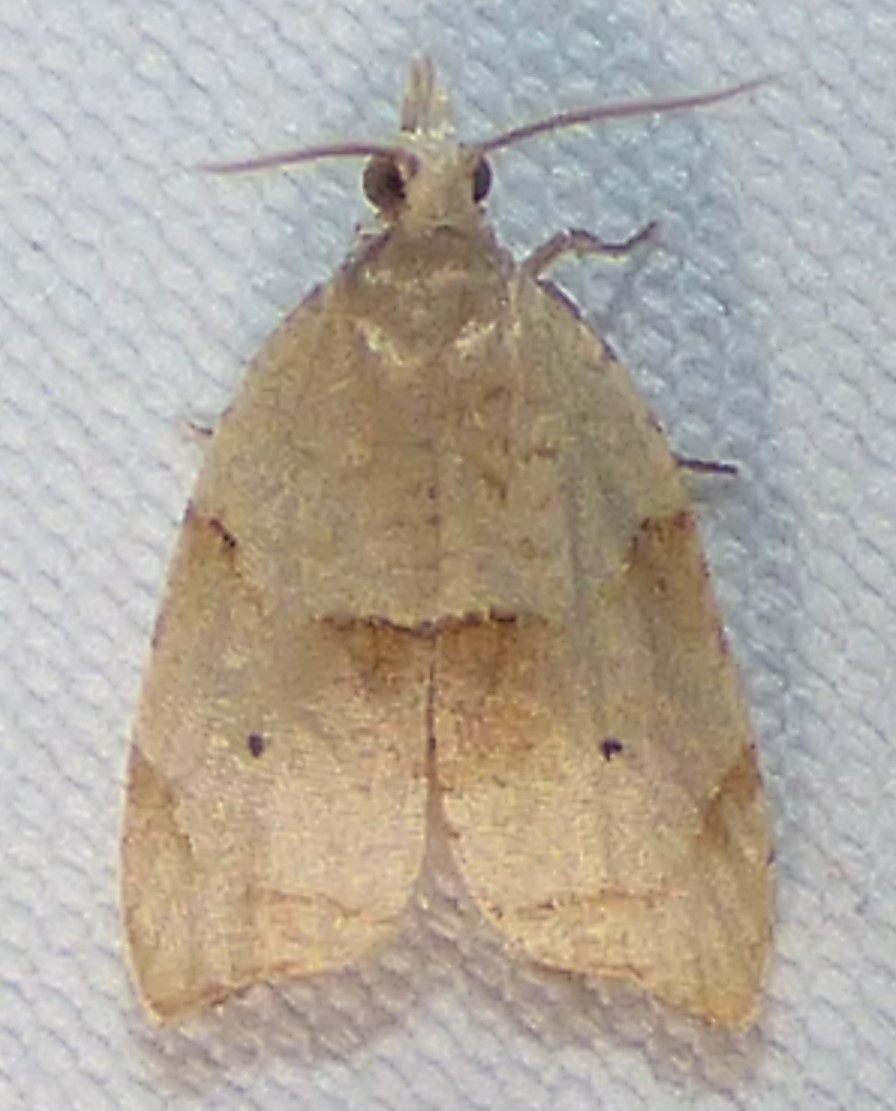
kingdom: Animalia
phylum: Arthropoda
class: Insecta
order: Lepidoptera
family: Tortricidae
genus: Coelostathma
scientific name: Coelostathma discopunctana
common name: Batman moth
